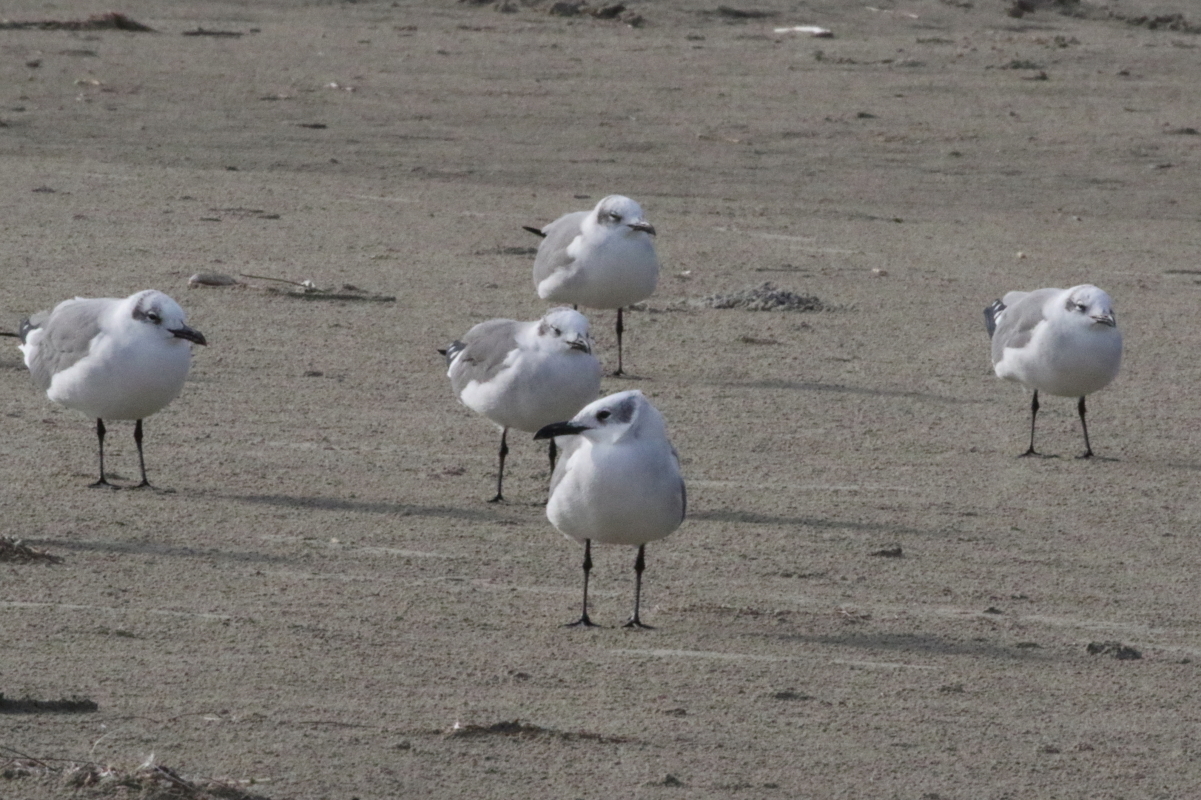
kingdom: Animalia
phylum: Chordata
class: Aves
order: Charadriiformes
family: Laridae
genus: Leucophaeus
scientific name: Leucophaeus atricilla
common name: Laughing gull
